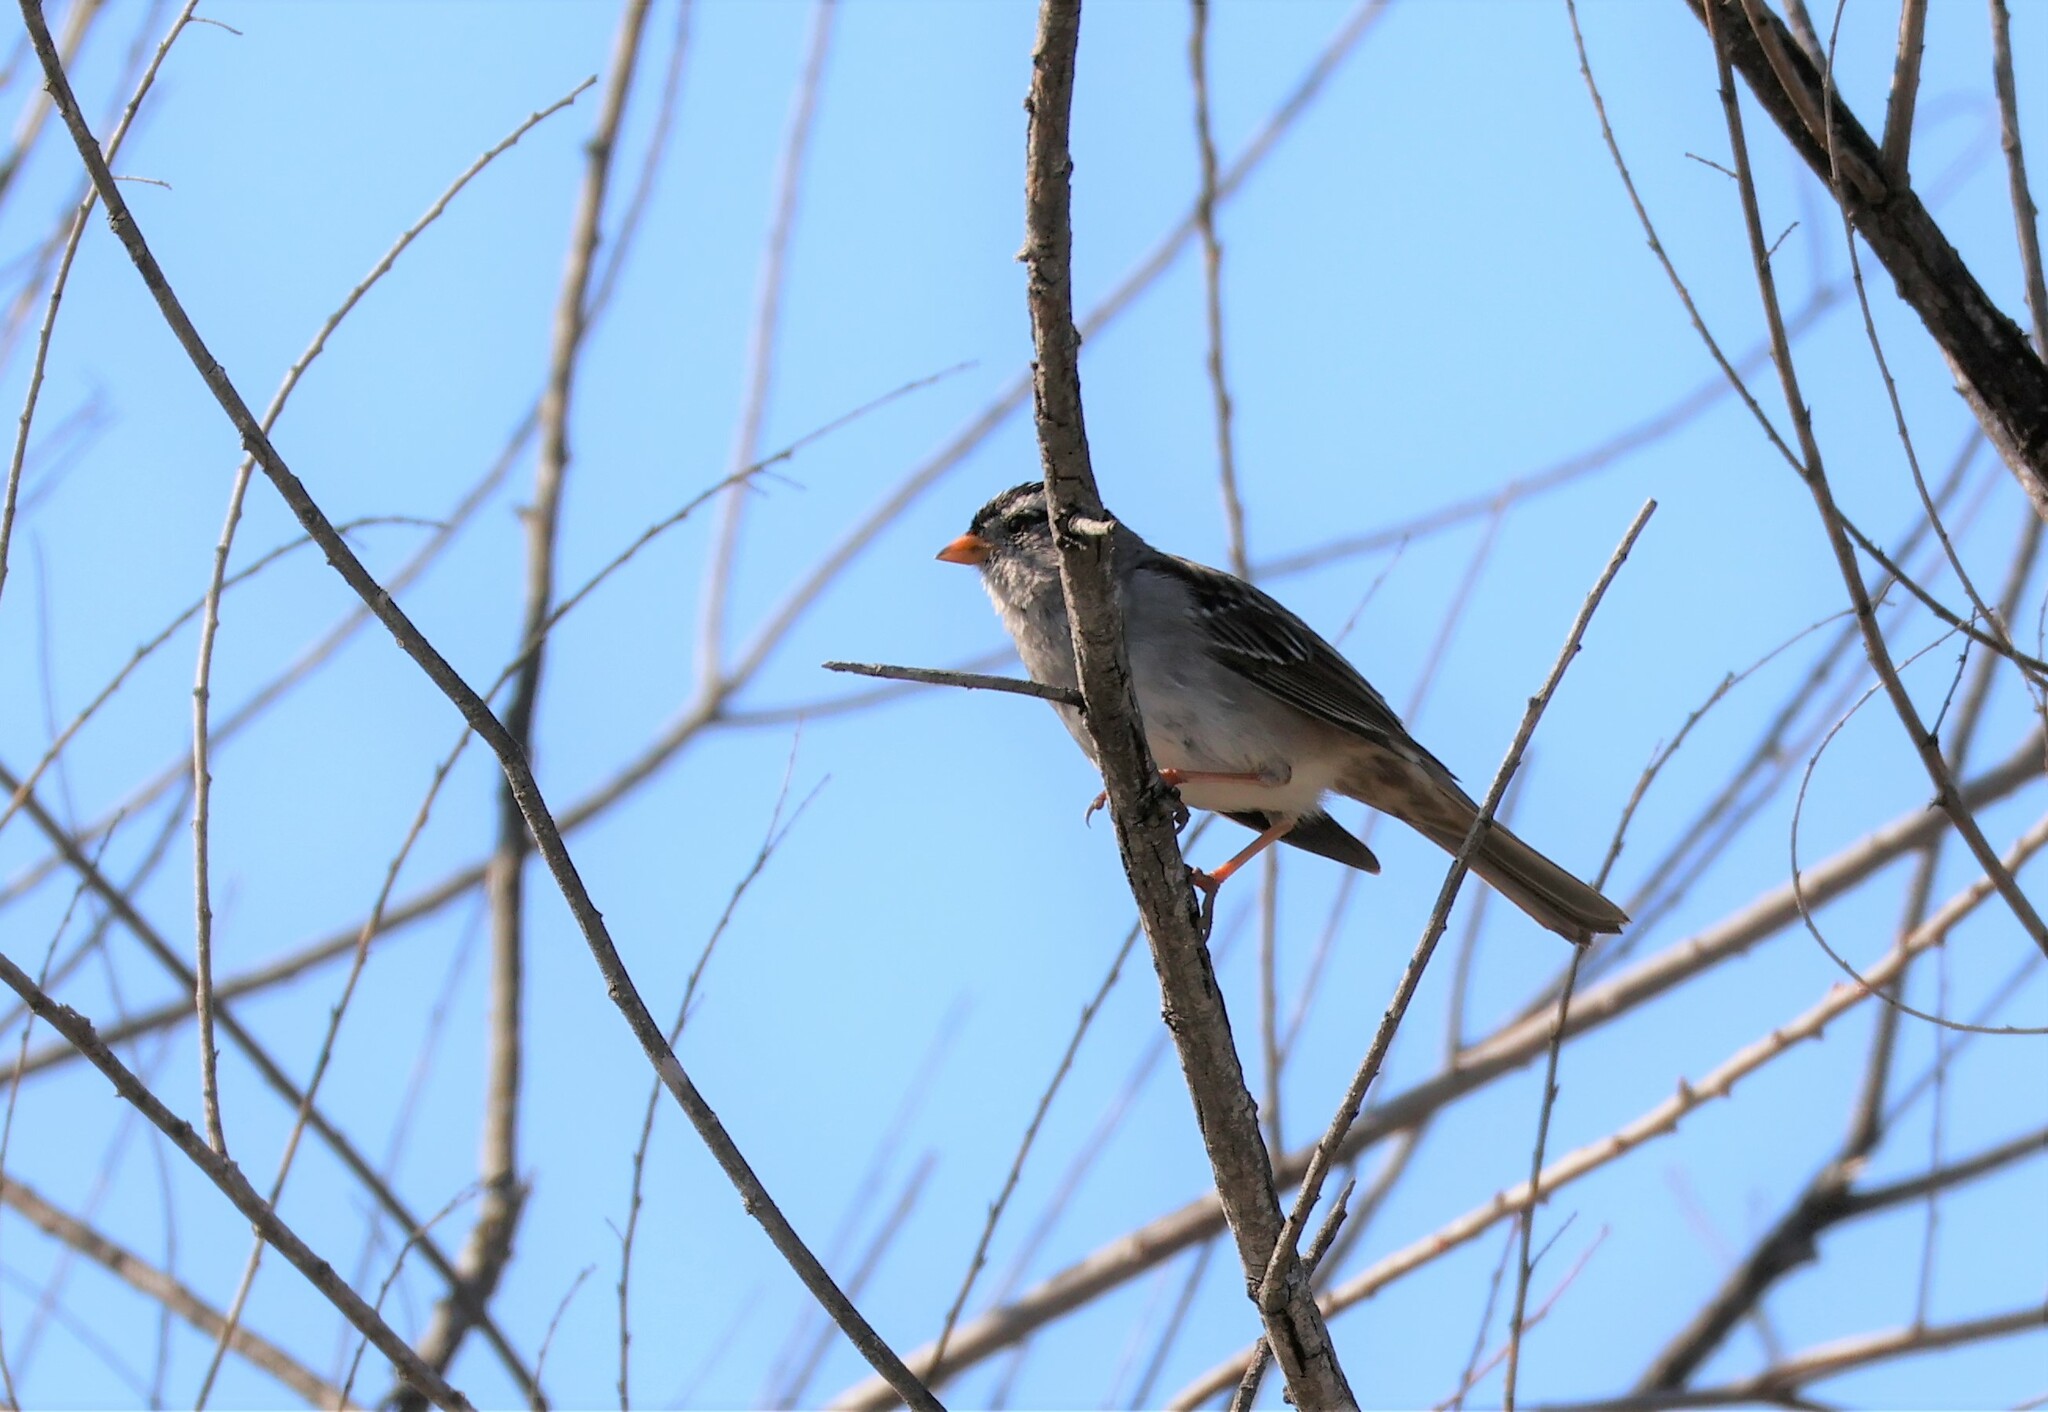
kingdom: Animalia
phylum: Chordata
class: Aves
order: Passeriformes
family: Passerellidae
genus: Zonotrichia
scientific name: Zonotrichia leucophrys
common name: White-crowned sparrow
